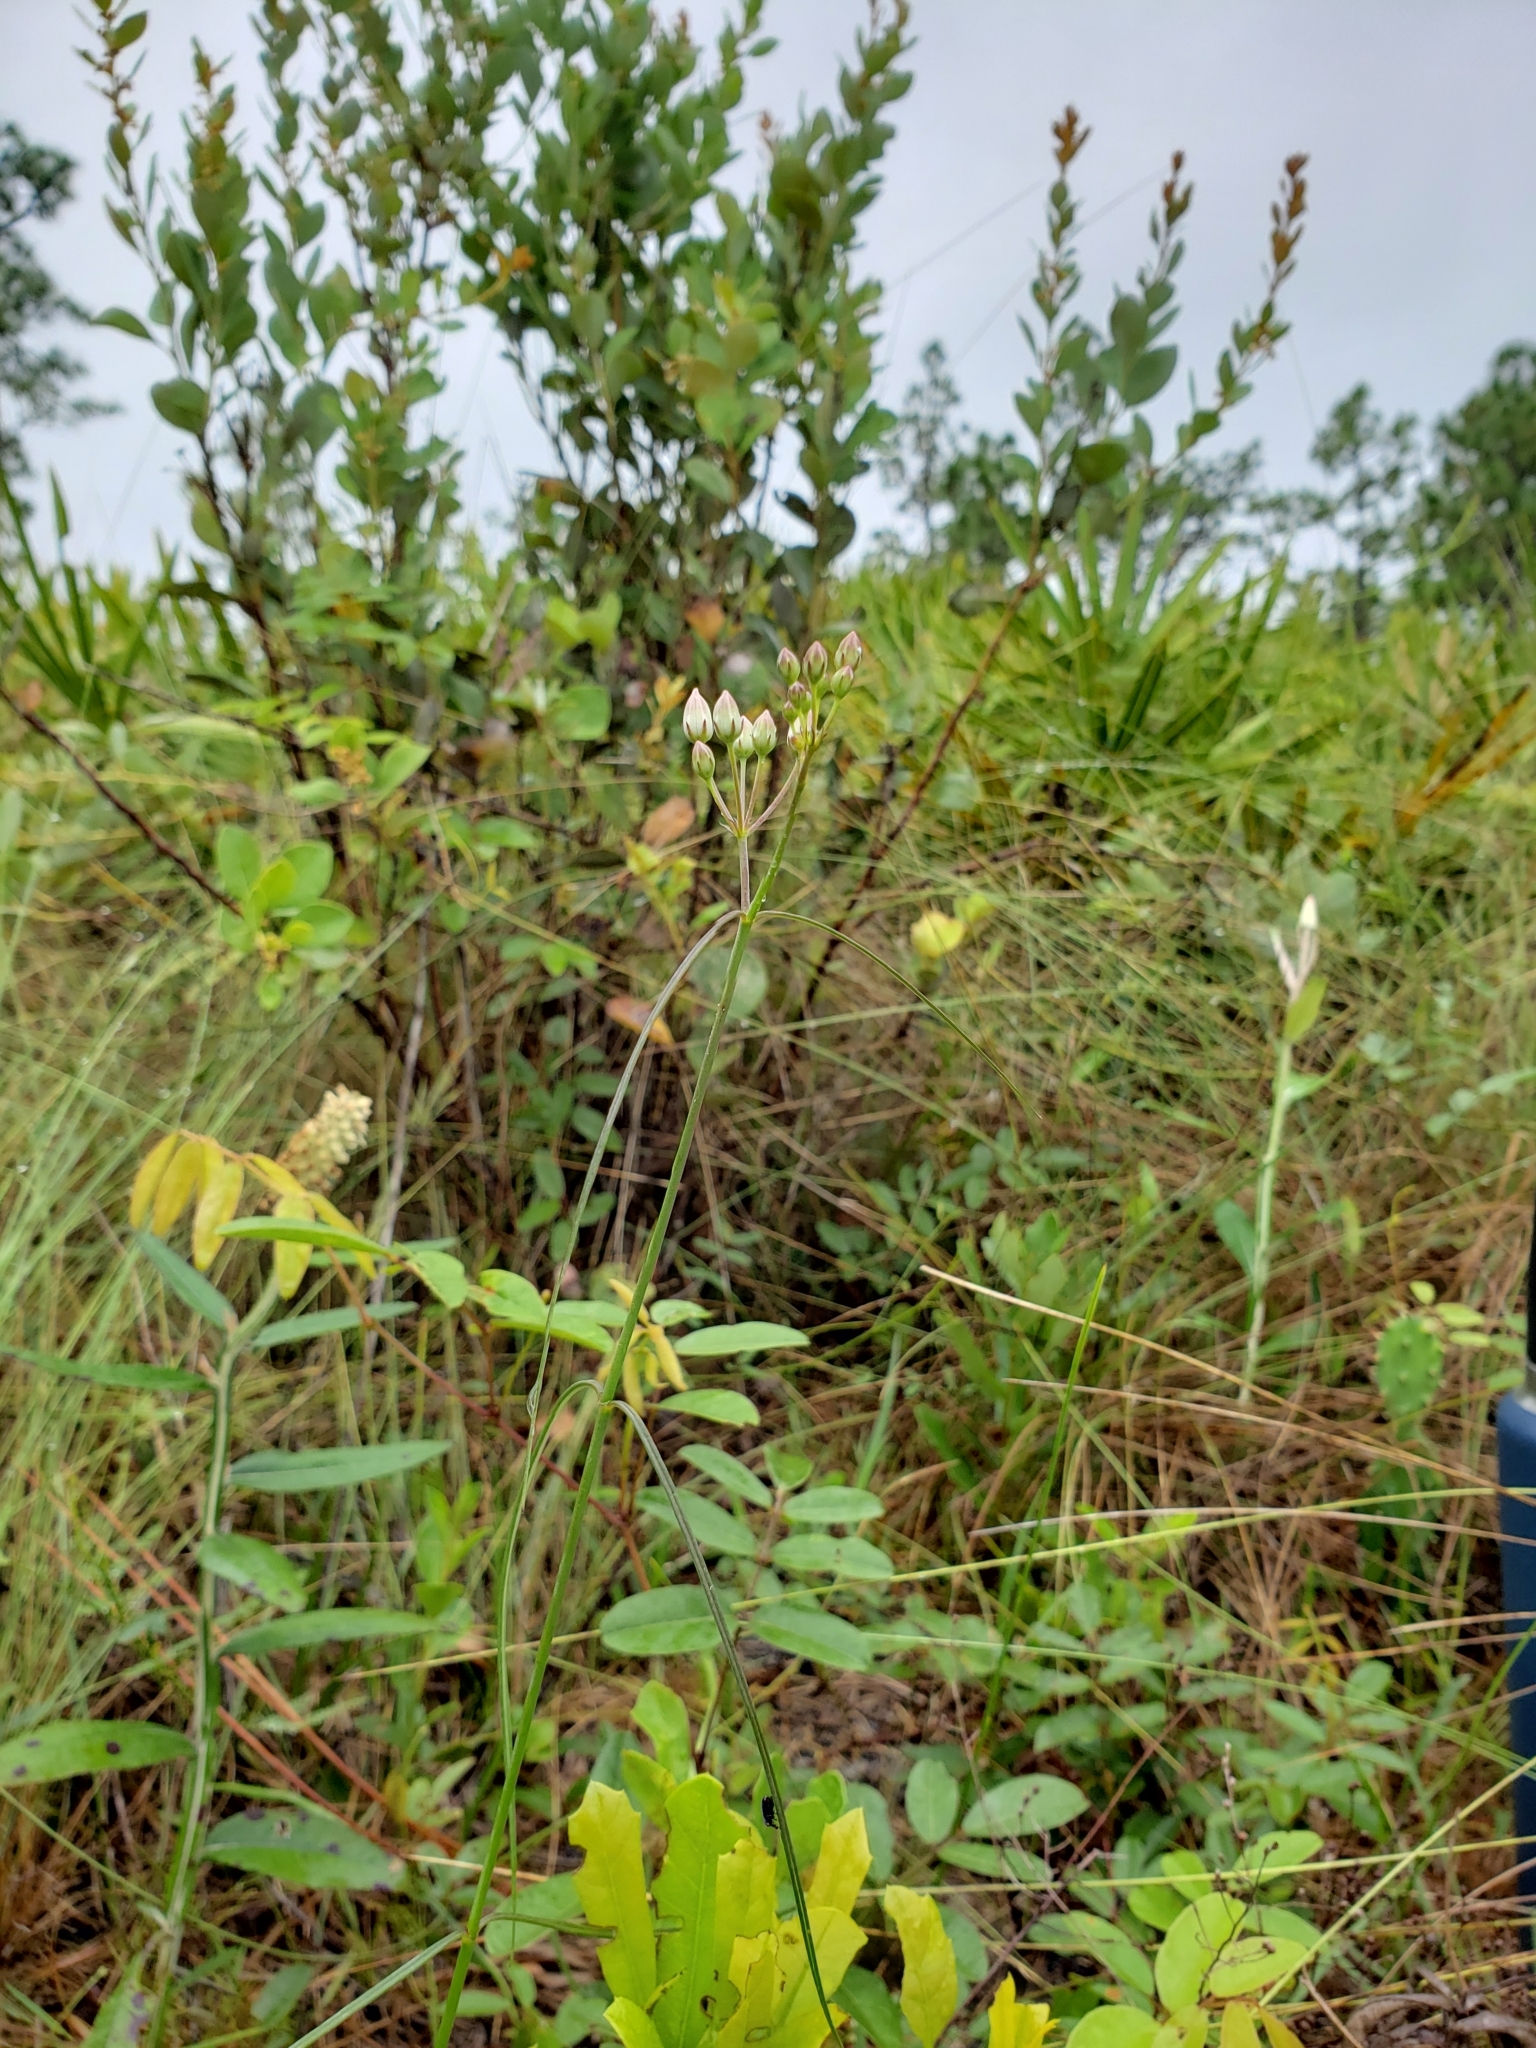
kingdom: Plantae
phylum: Tracheophyta
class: Magnoliopsida
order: Gentianales
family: Apocynaceae
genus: Asclepias
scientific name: Asclepias feayi
